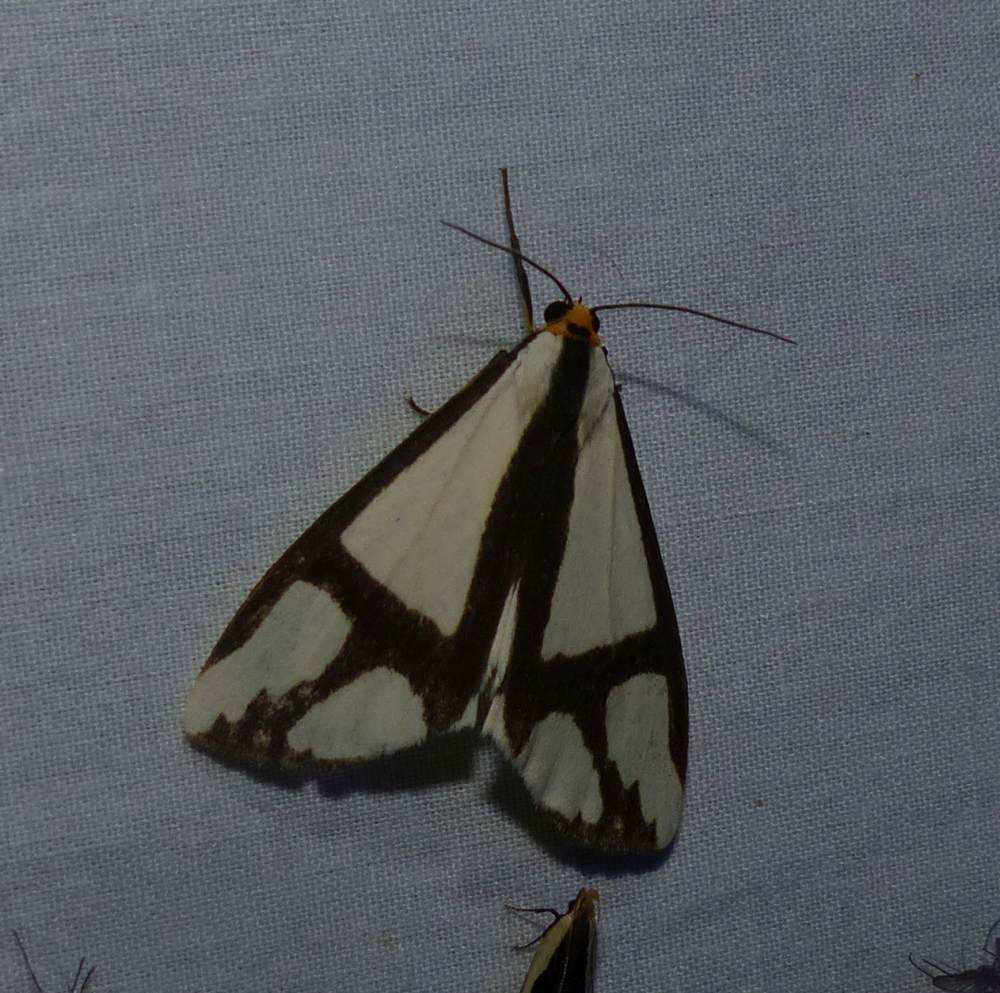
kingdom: Animalia
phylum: Arthropoda
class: Insecta
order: Lepidoptera
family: Erebidae
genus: Haploa
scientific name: Haploa contigua
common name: Neighbor moth
